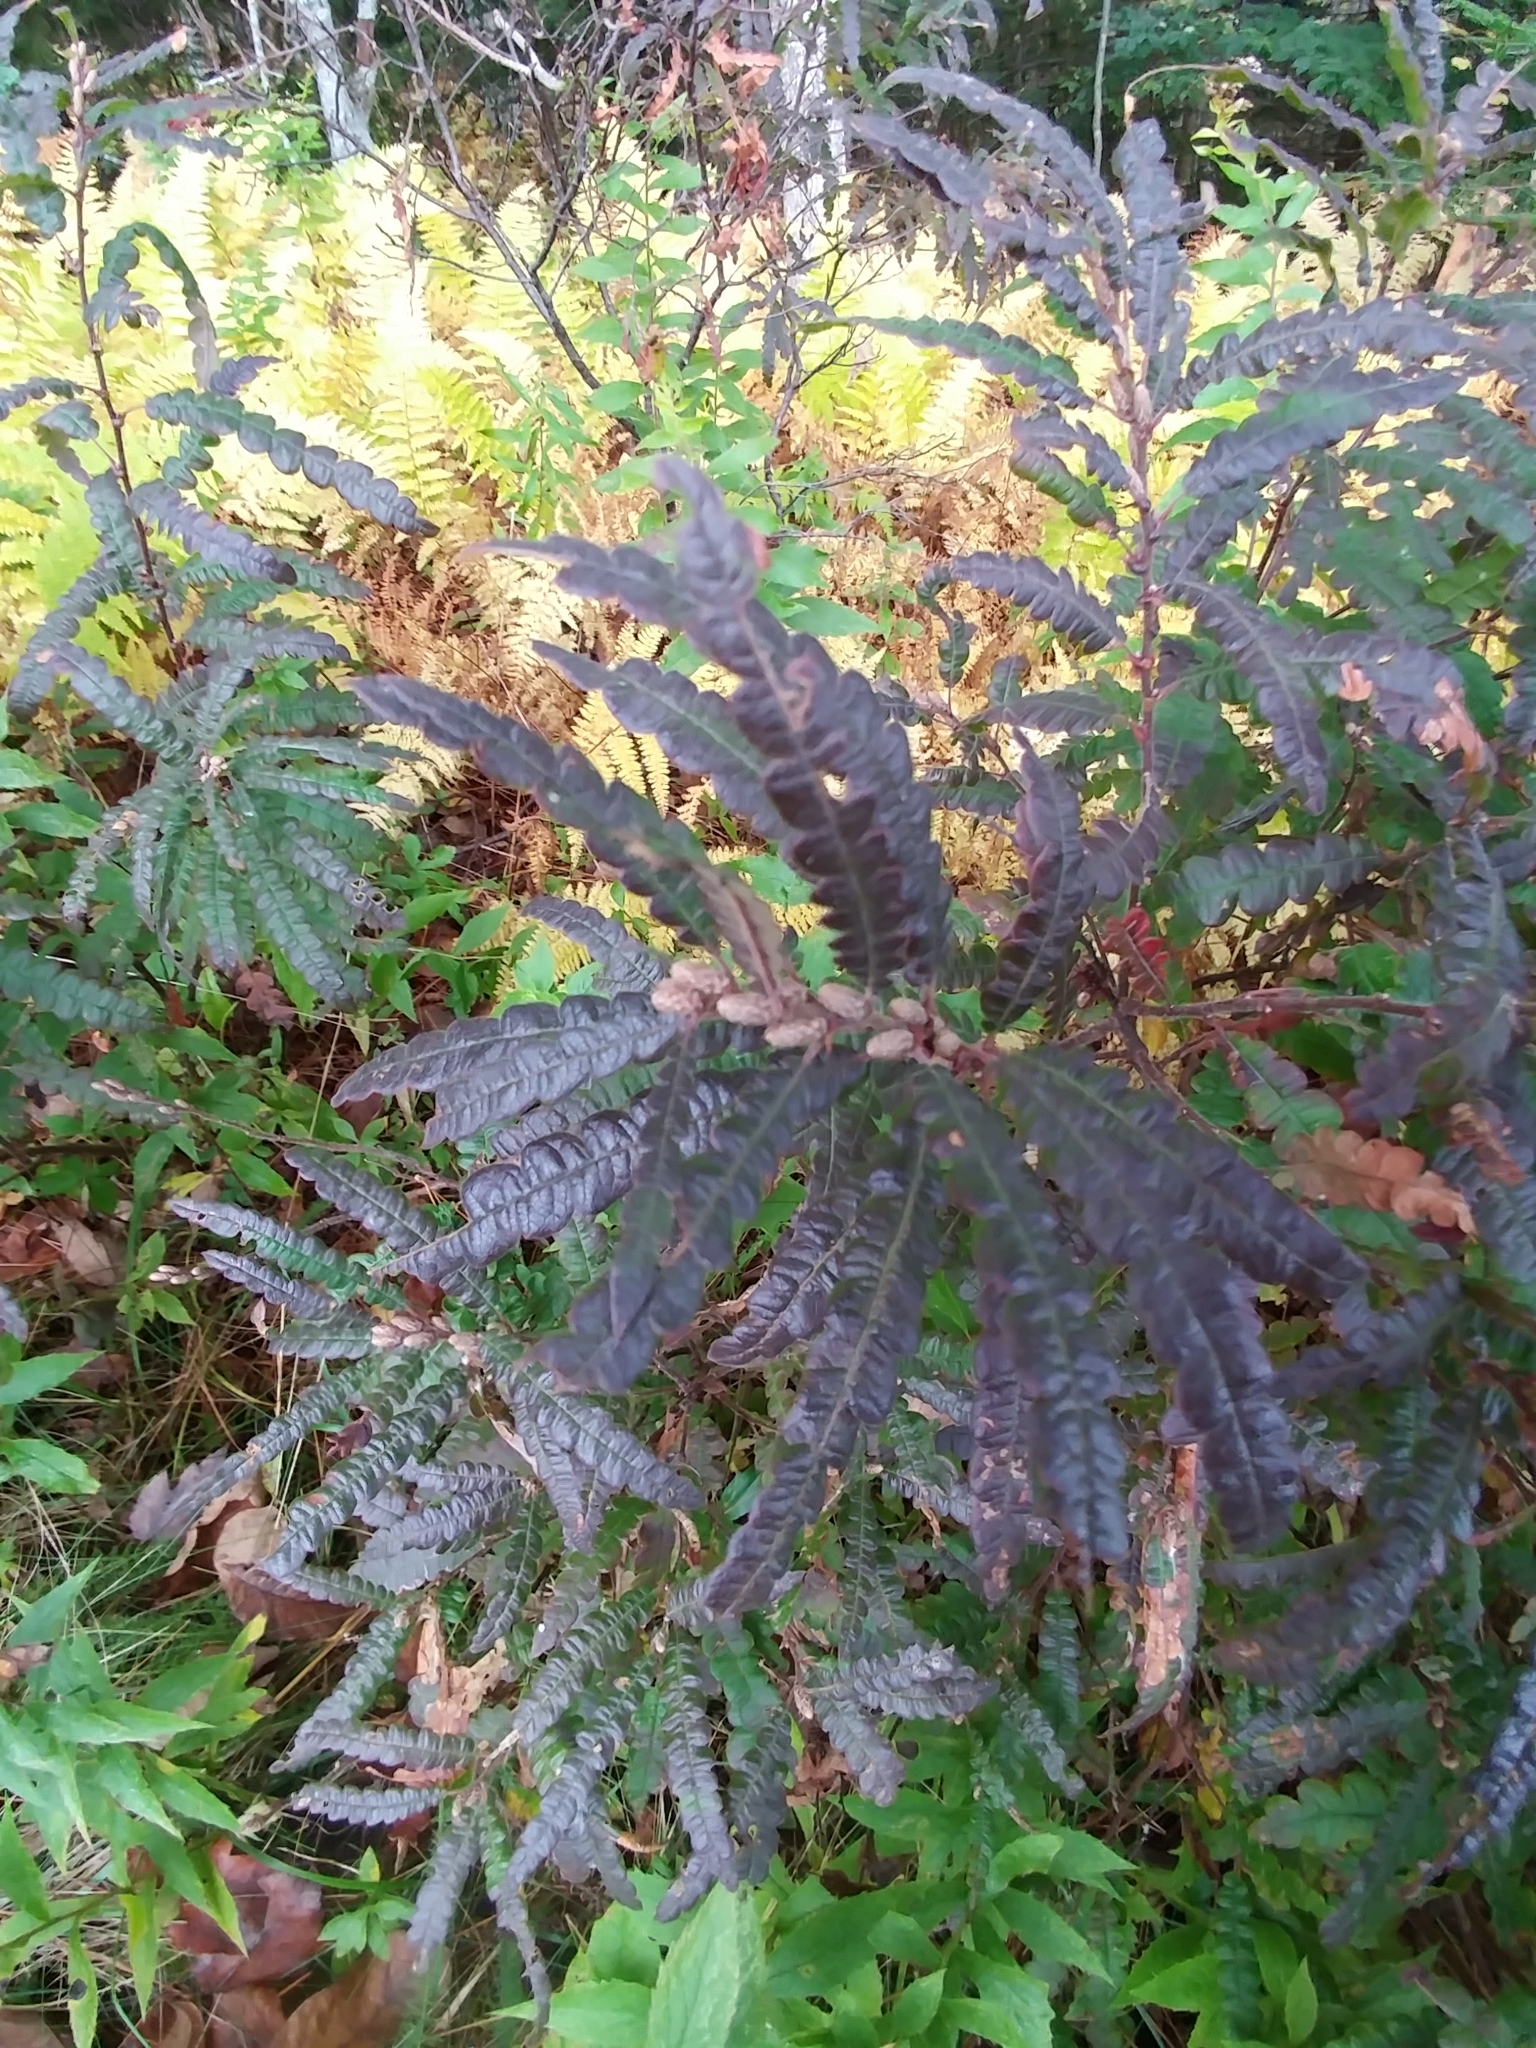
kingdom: Plantae
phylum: Tracheophyta
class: Magnoliopsida
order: Fagales
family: Myricaceae
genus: Comptonia
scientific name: Comptonia peregrina
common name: Sweet-fern
